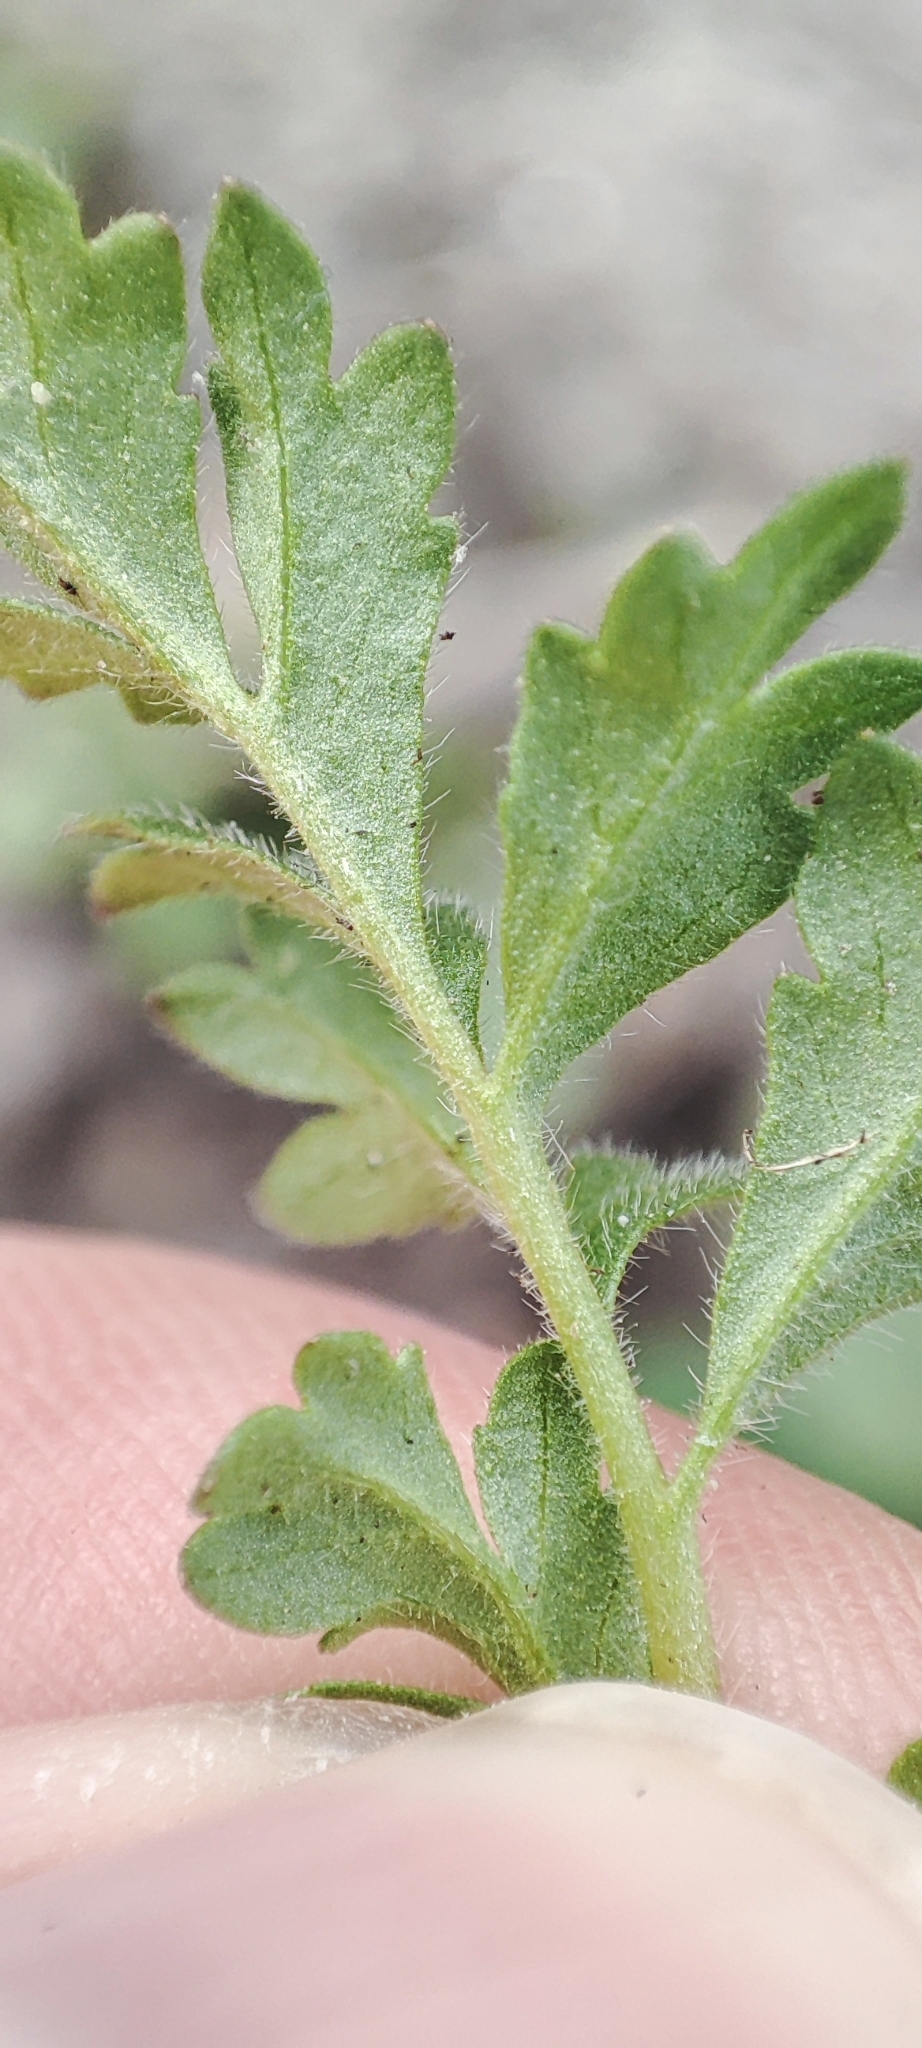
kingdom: Plantae
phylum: Tracheophyta
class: Magnoliopsida
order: Rosales
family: Rosaceae
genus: Potentilla
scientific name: Potentilla tobolensis
